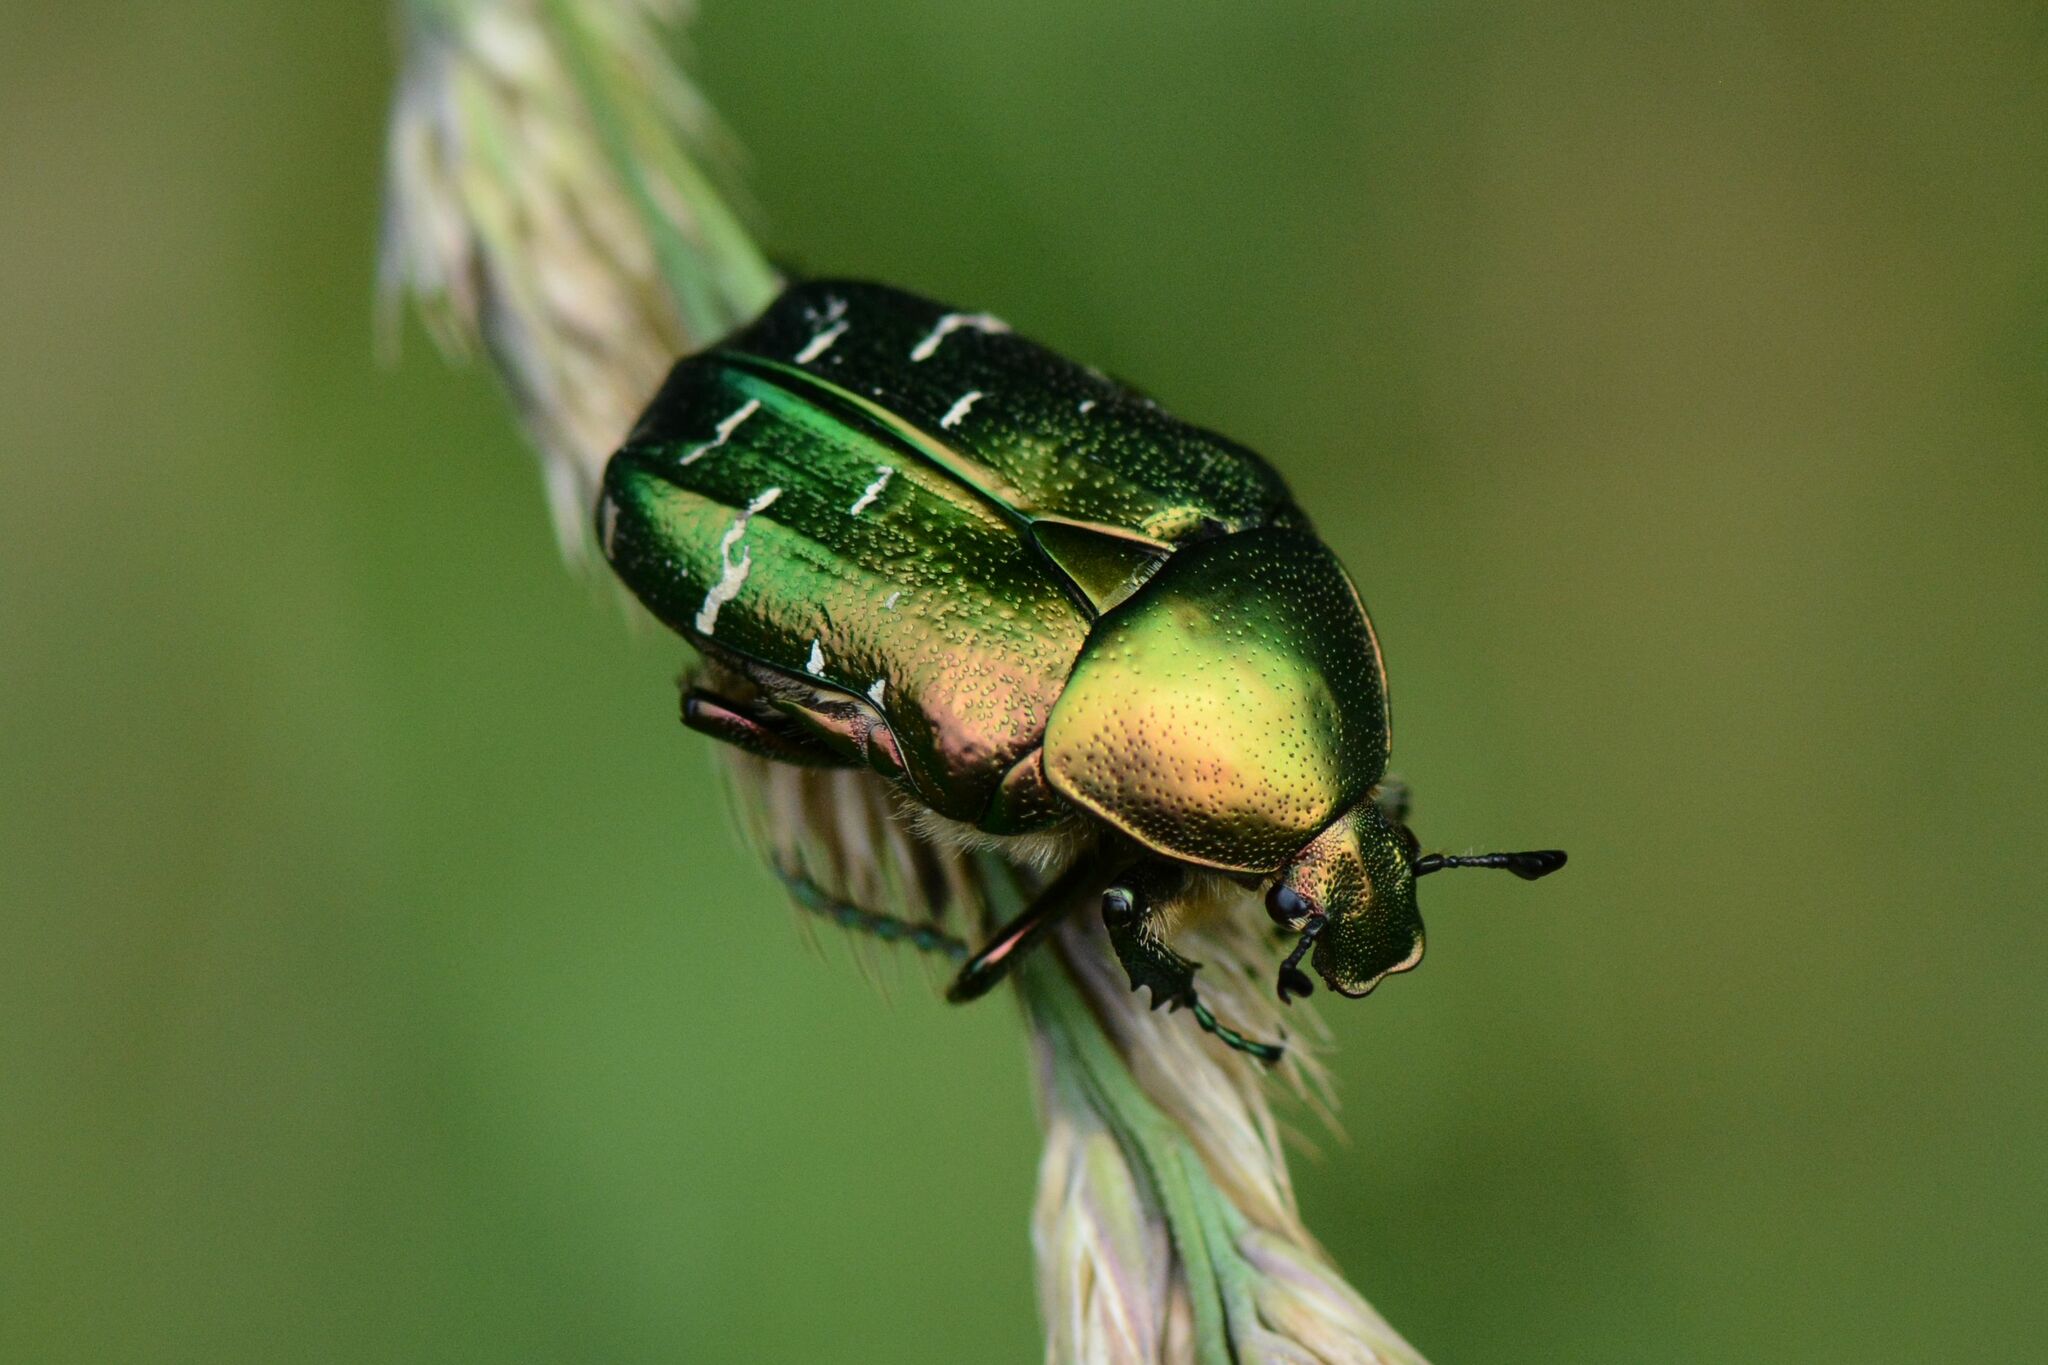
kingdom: Animalia
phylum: Arthropoda
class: Insecta
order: Coleoptera
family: Scarabaeidae
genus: Cetonia
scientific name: Cetonia aurata
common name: Rose chafer
